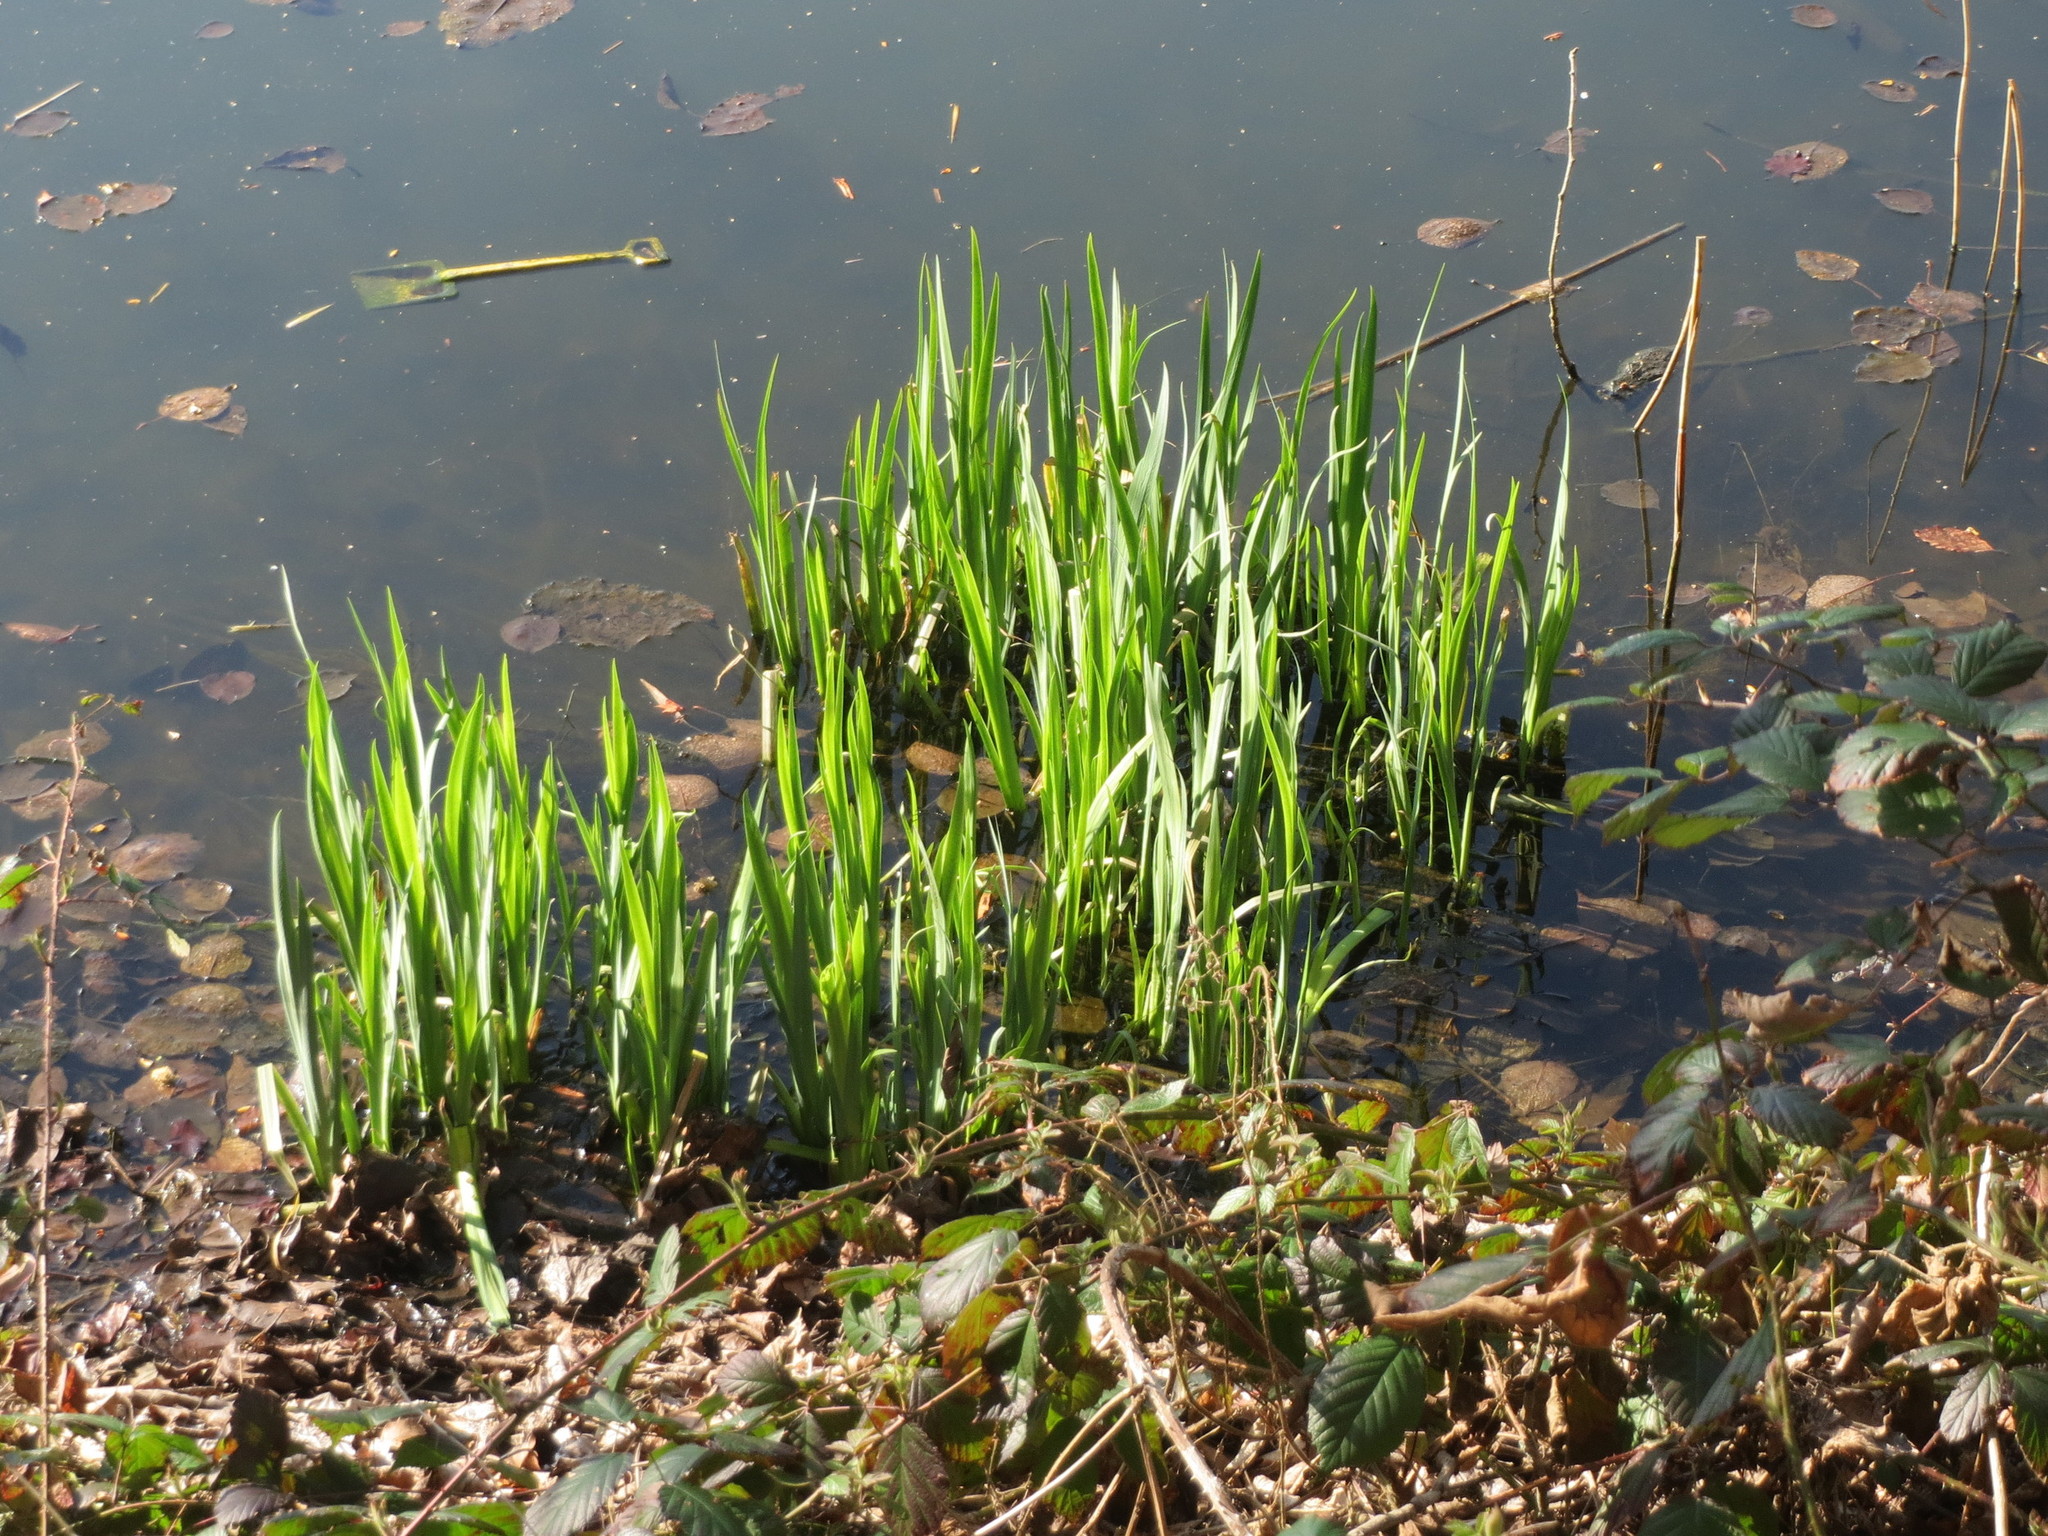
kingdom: Plantae
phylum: Tracheophyta
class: Liliopsida
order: Asparagales
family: Iridaceae
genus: Iris
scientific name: Iris pseudacorus
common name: Yellow flag
